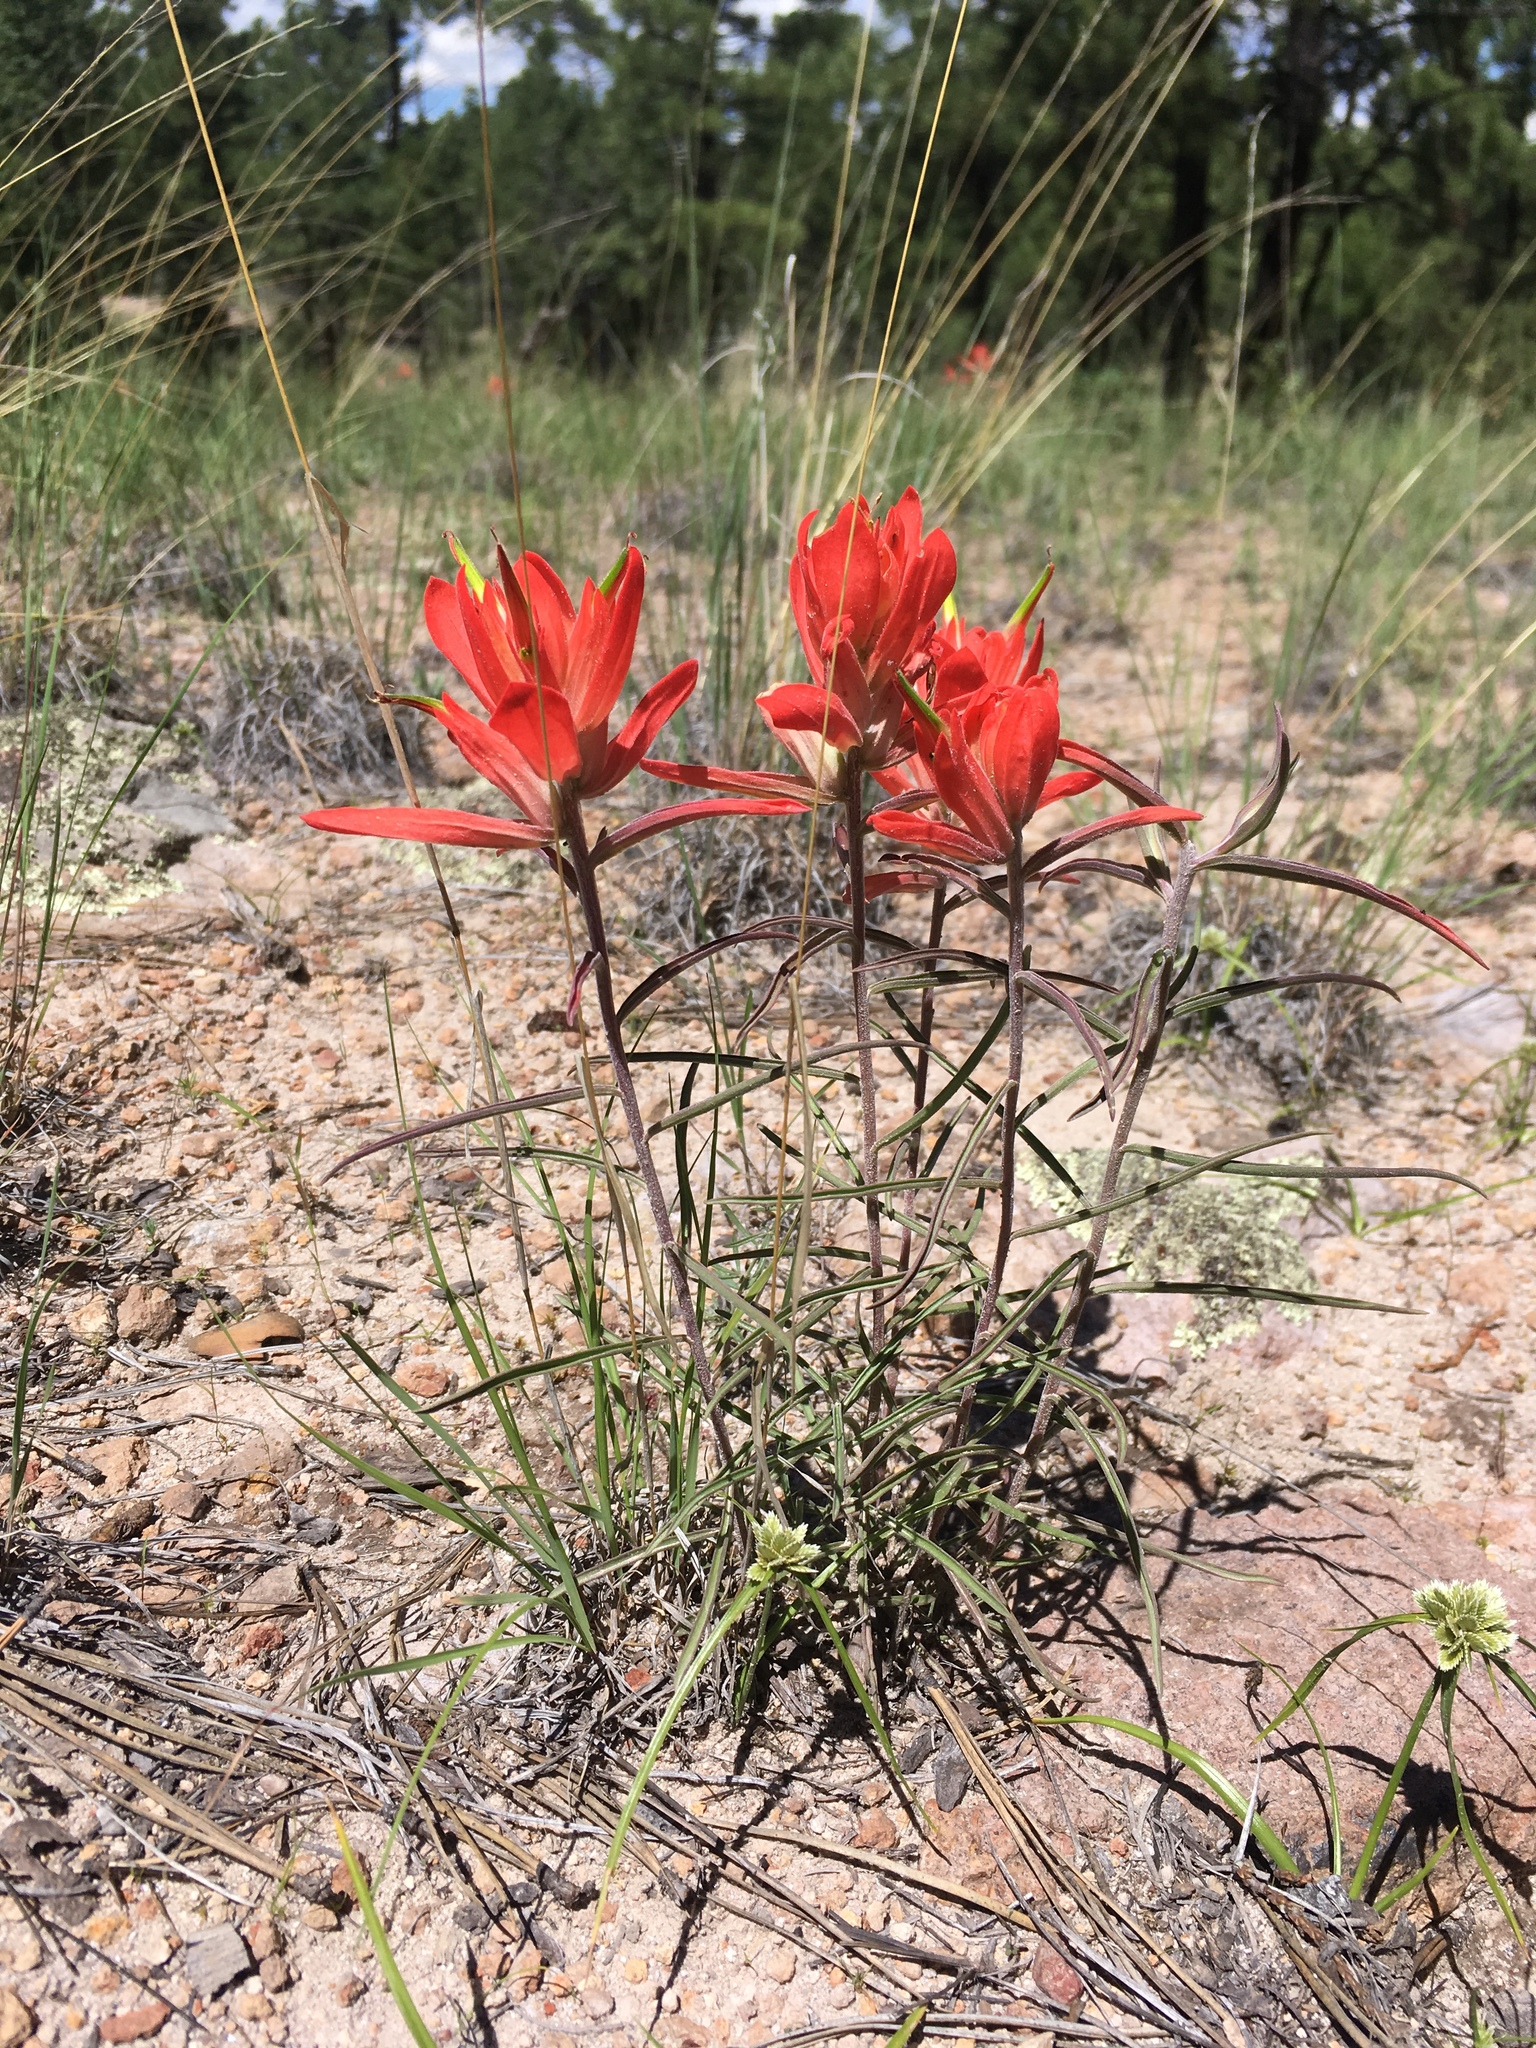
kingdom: Plantae
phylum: Tracheophyta
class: Magnoliopsida
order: Lamiales
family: Orobanchaceae
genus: Castilleja
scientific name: Castilleja integra
